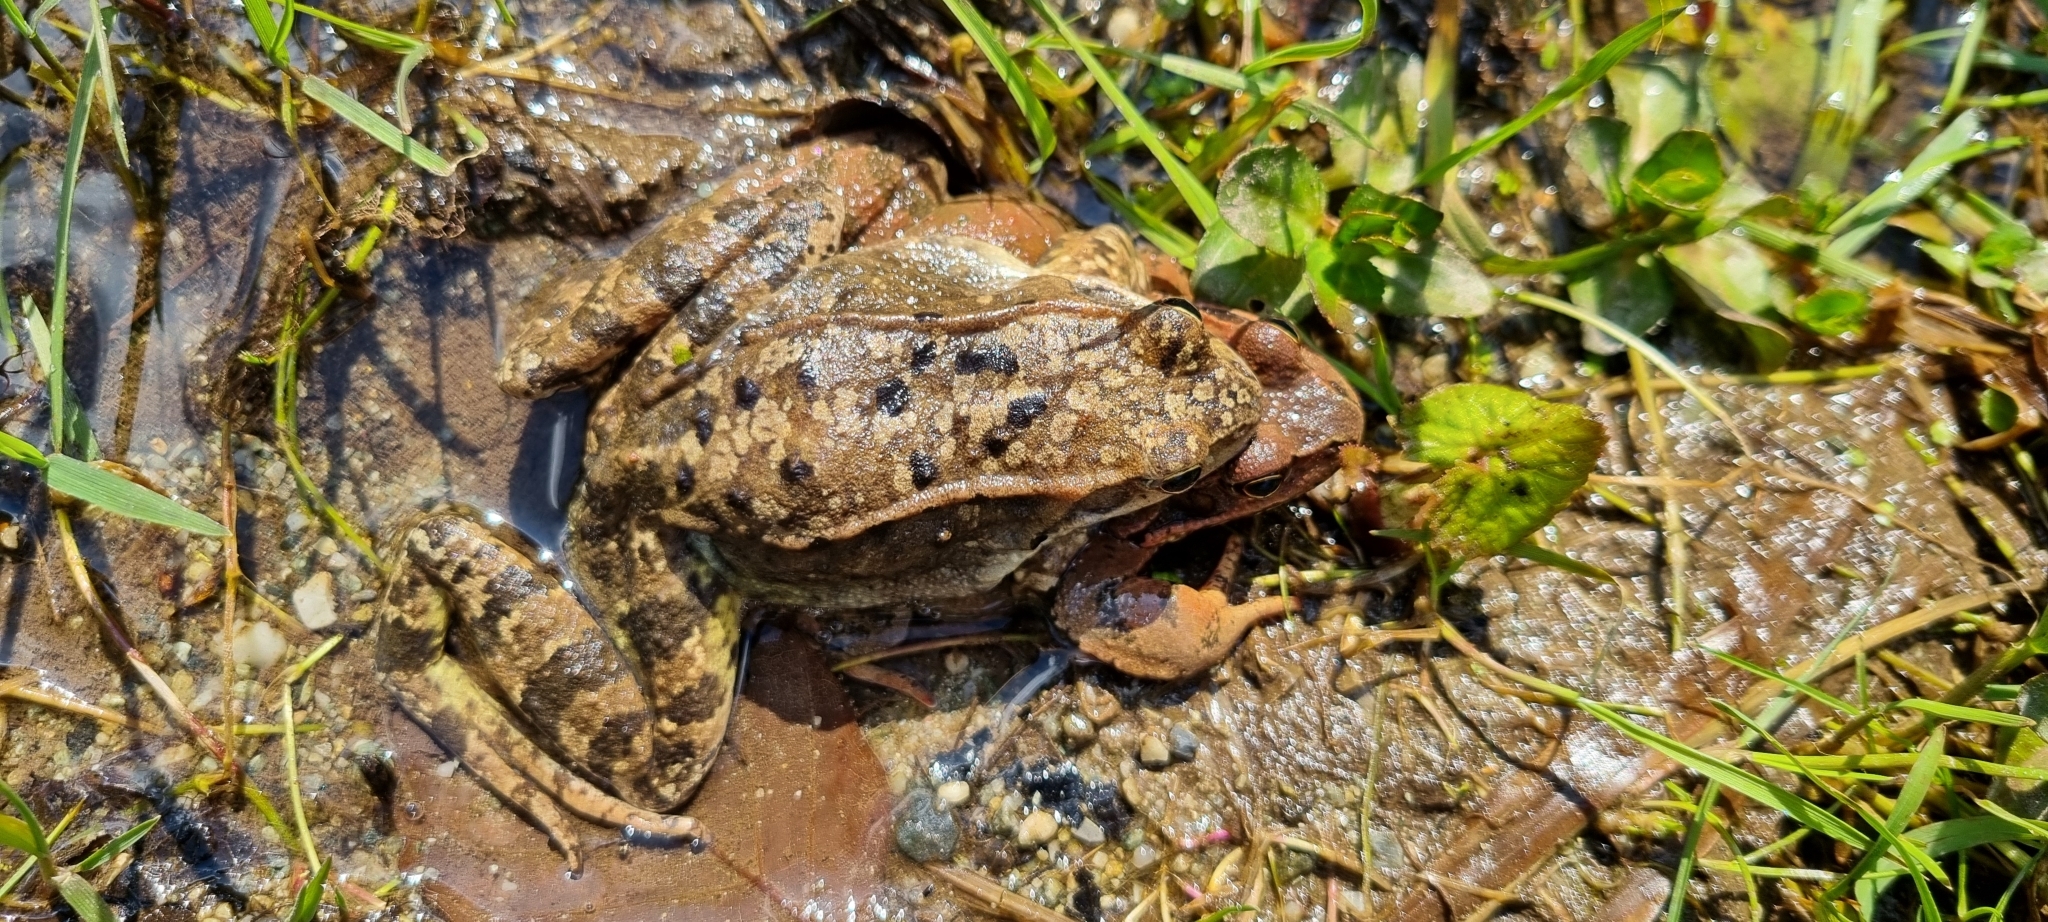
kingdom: Animalia
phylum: Chordata
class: Amphibia
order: Anura
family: Ranidae
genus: Rana
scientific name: Rana temporaria
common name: Common frog
